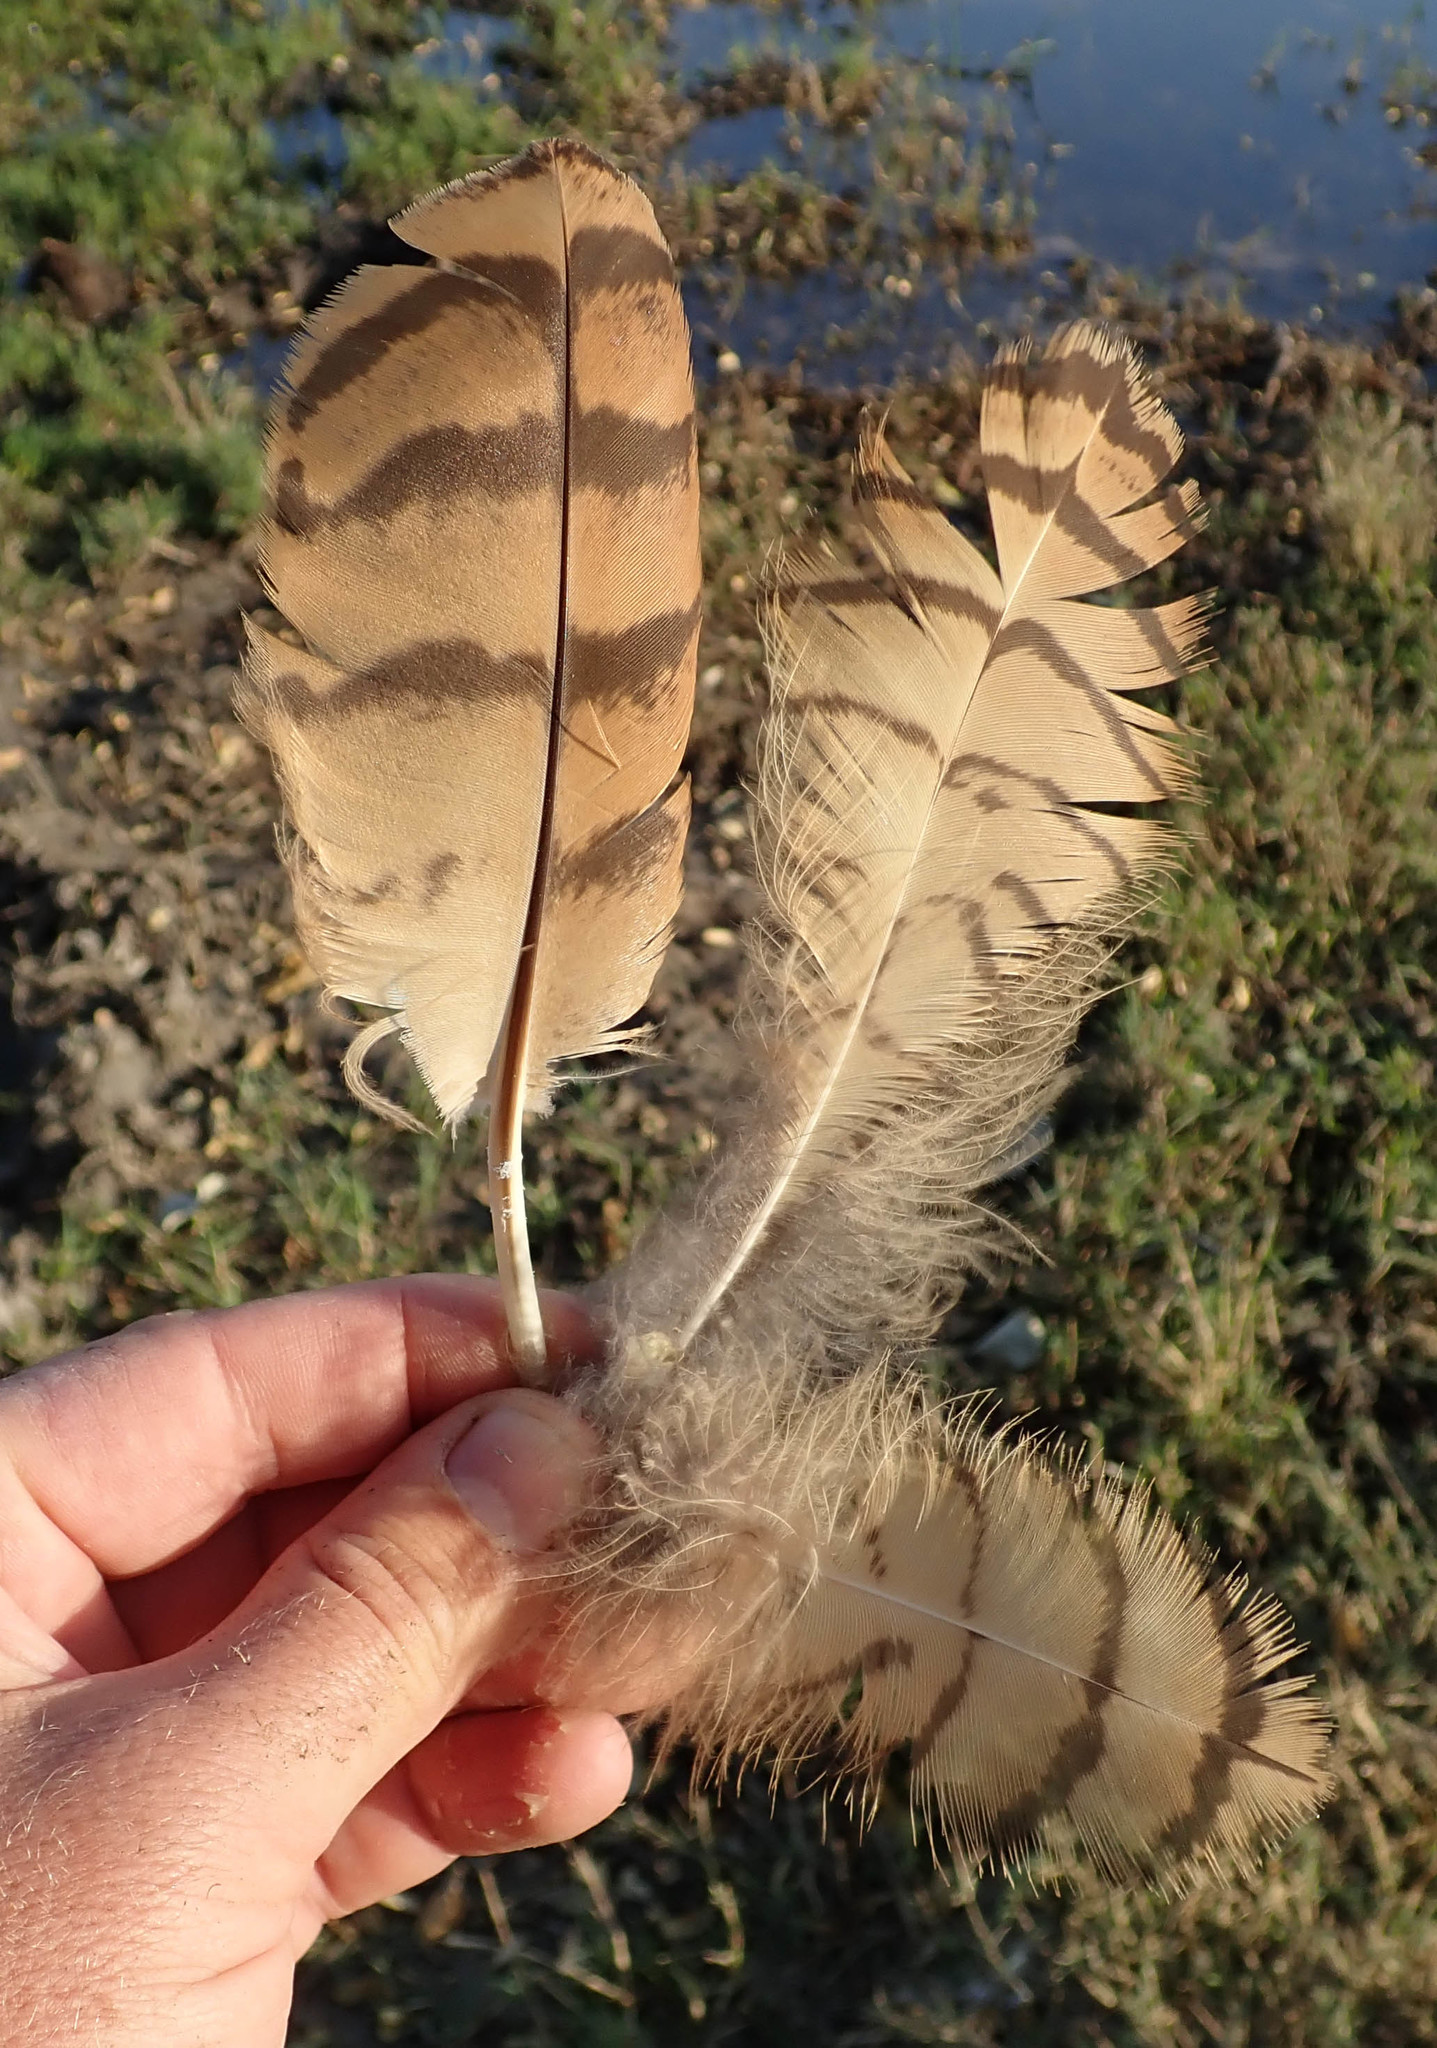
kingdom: Animalia
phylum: Chordata
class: Aves
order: Strigiformes
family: Strigidae
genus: Scotopelia
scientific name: Scotopelia peli
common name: Pel's fishing owl
